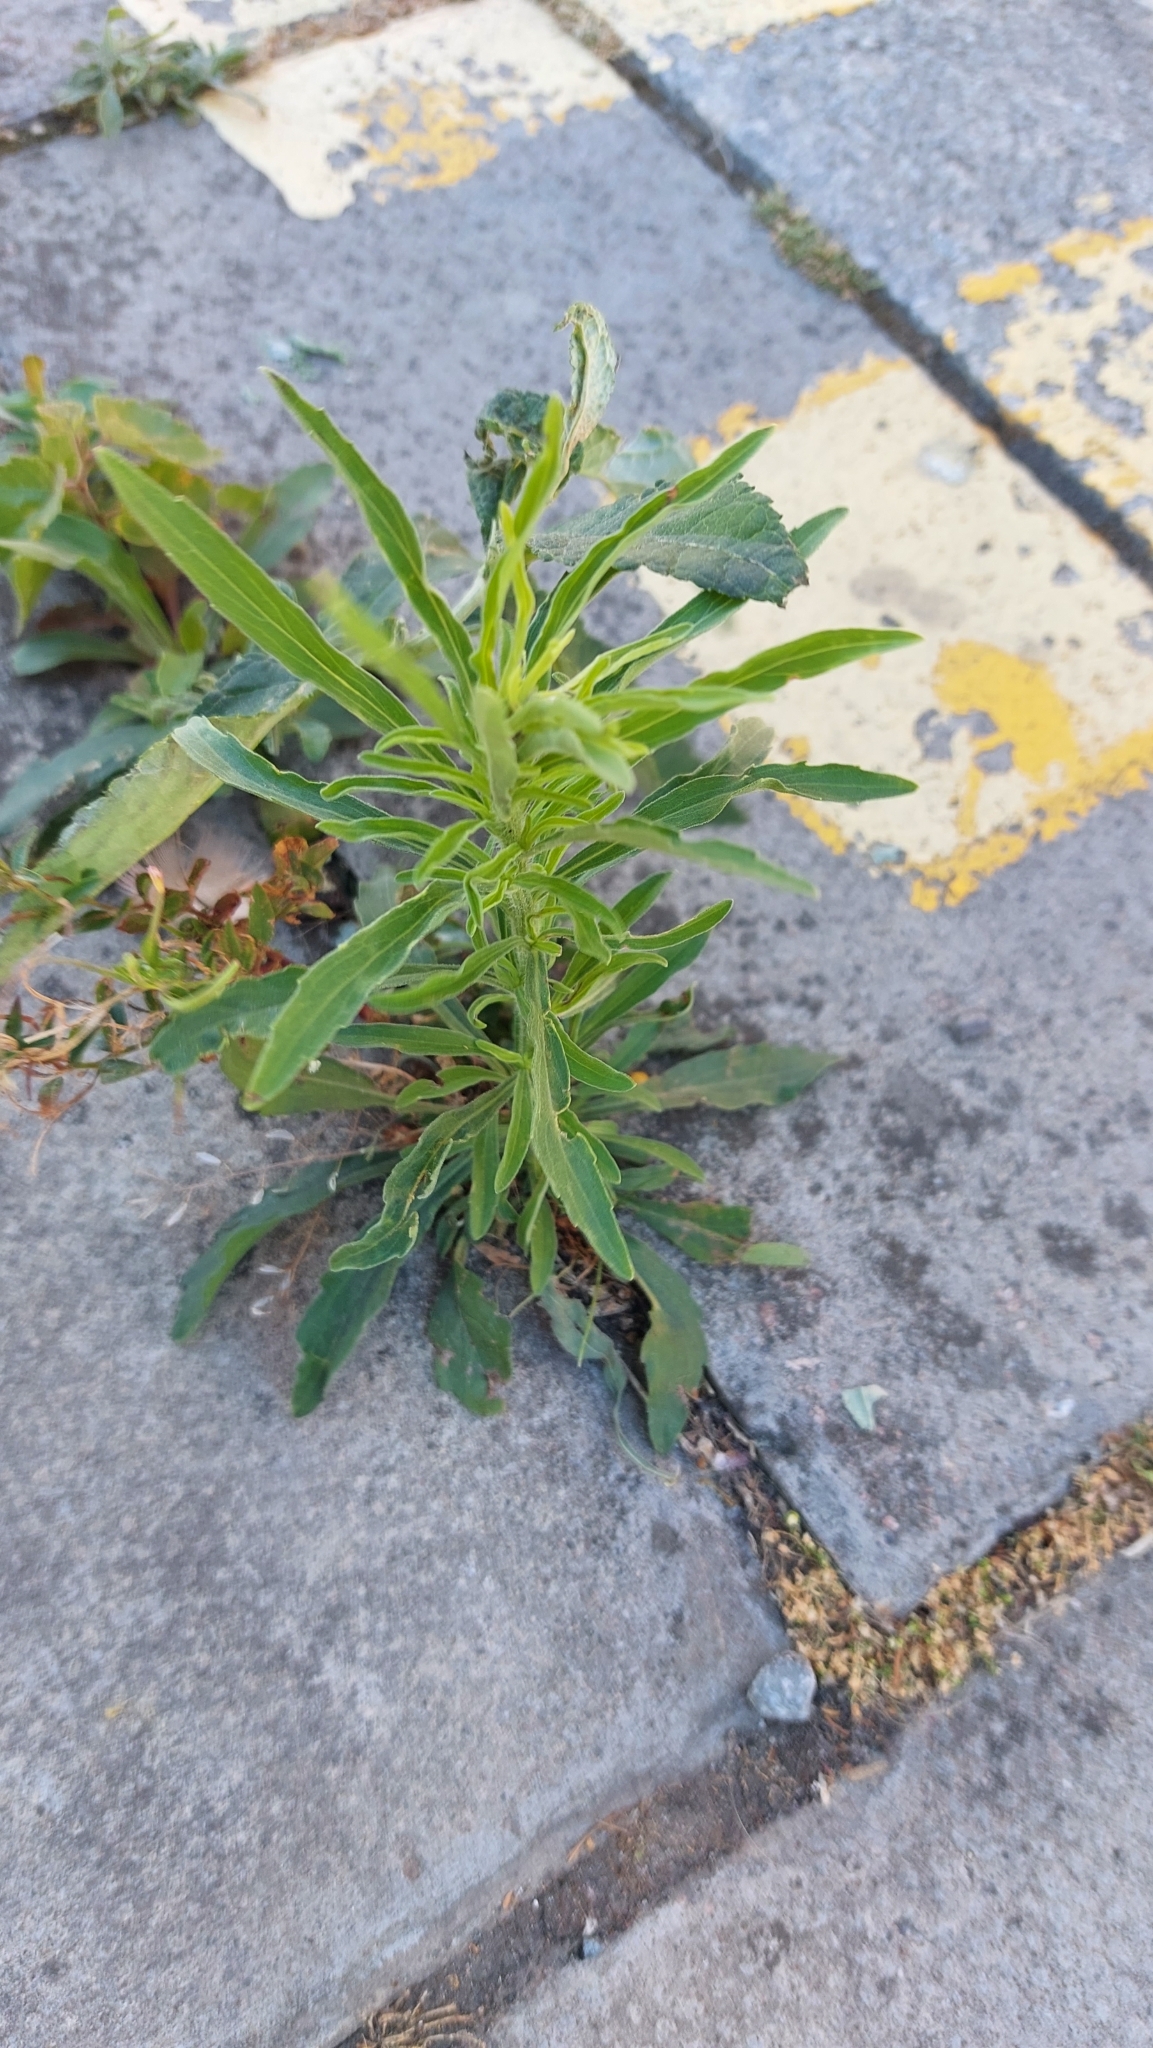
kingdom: Plantae
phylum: Tracheophyta
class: Magnoliopsida
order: Asterales
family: Asteraceae
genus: Erigeron
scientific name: Erigeron sumatrensis
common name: Daisy
